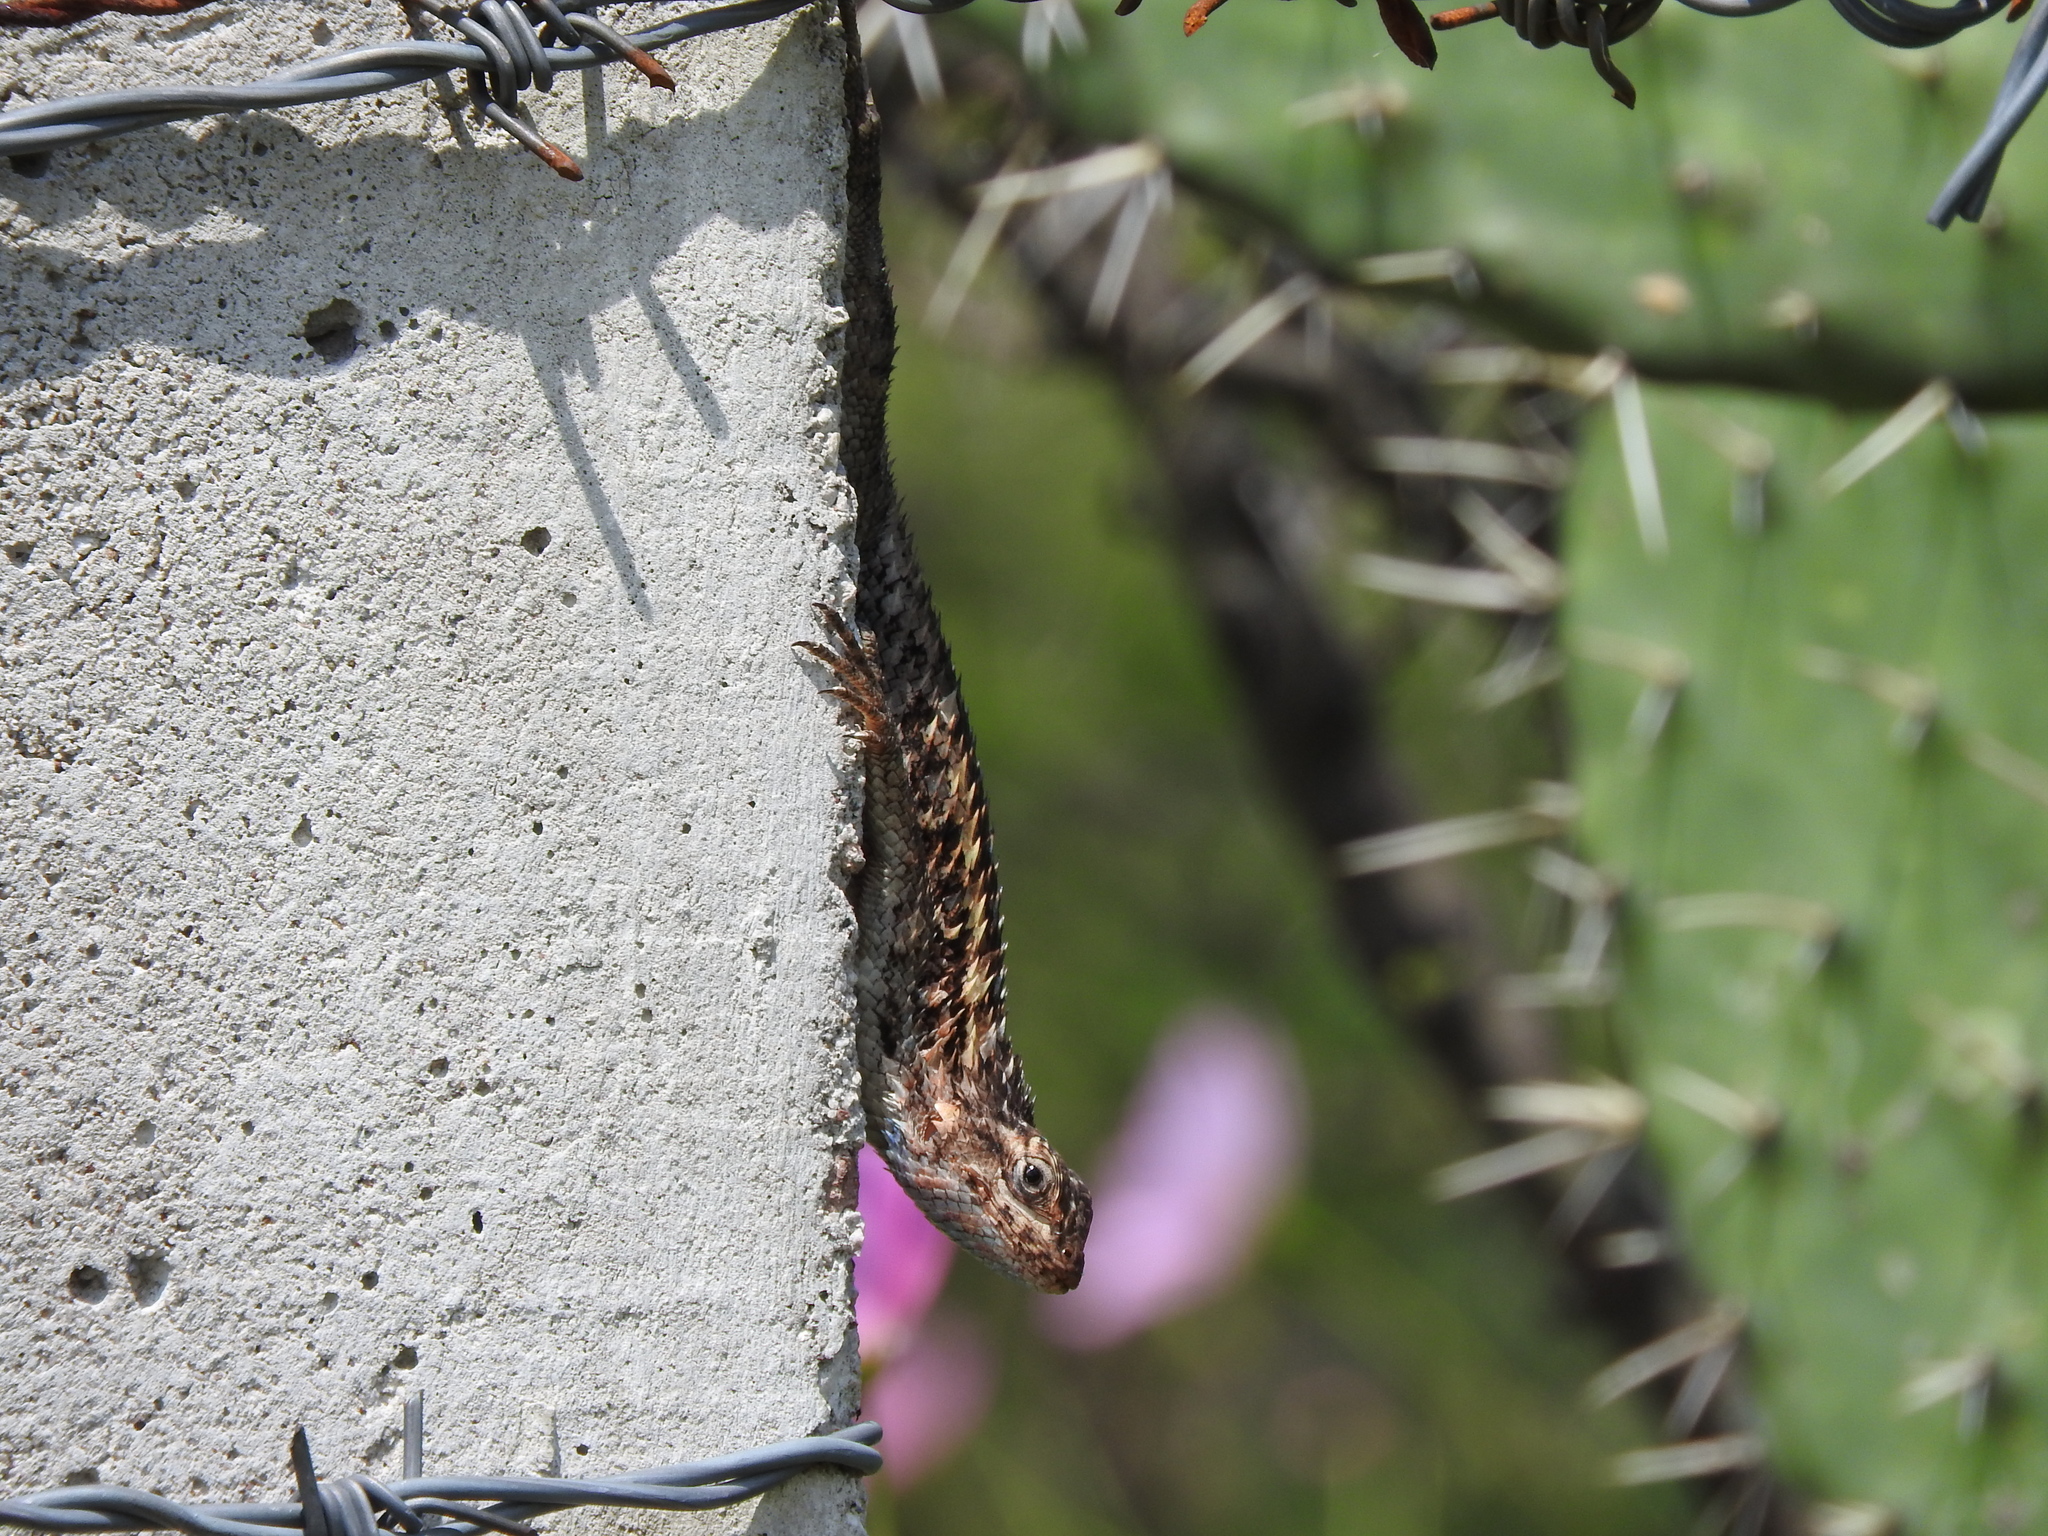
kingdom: Animalia
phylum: Chordata
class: Squamata
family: Phrynosomatidae
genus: Sceloporus
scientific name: Sceloporus spinosus
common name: Blue-spotted spiny lizard [caeruleopunctatus]
